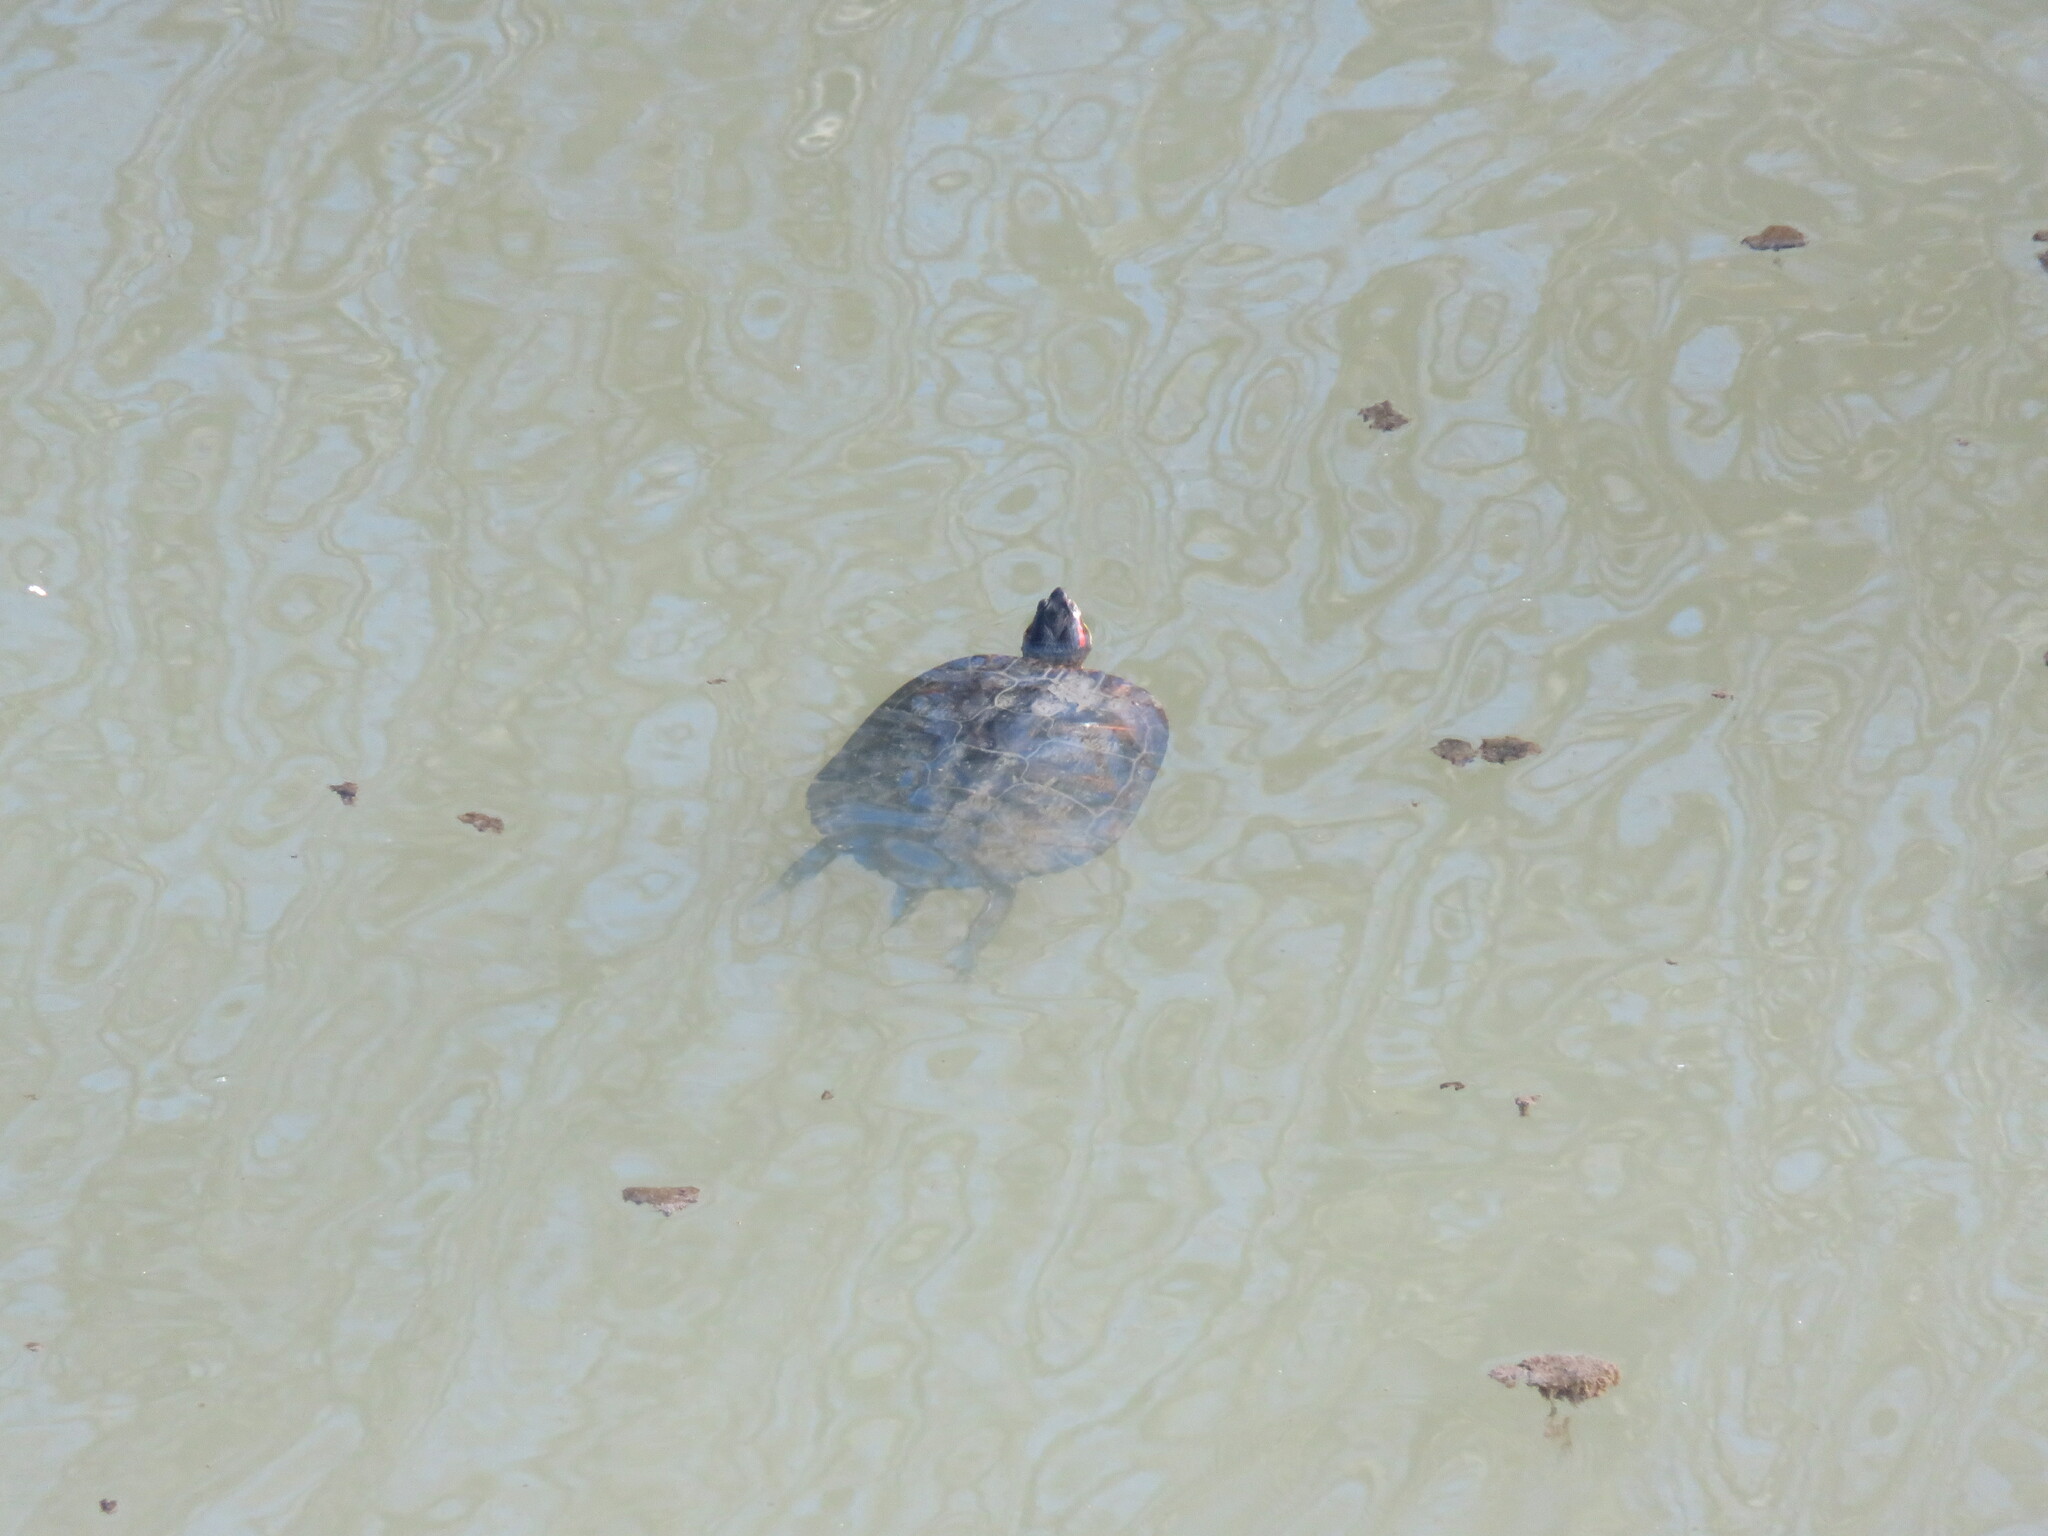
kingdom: Animalia
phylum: Chordata
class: Testudines
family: Emydidae
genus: Trachemys
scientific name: Trachemys scripta
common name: Slider
